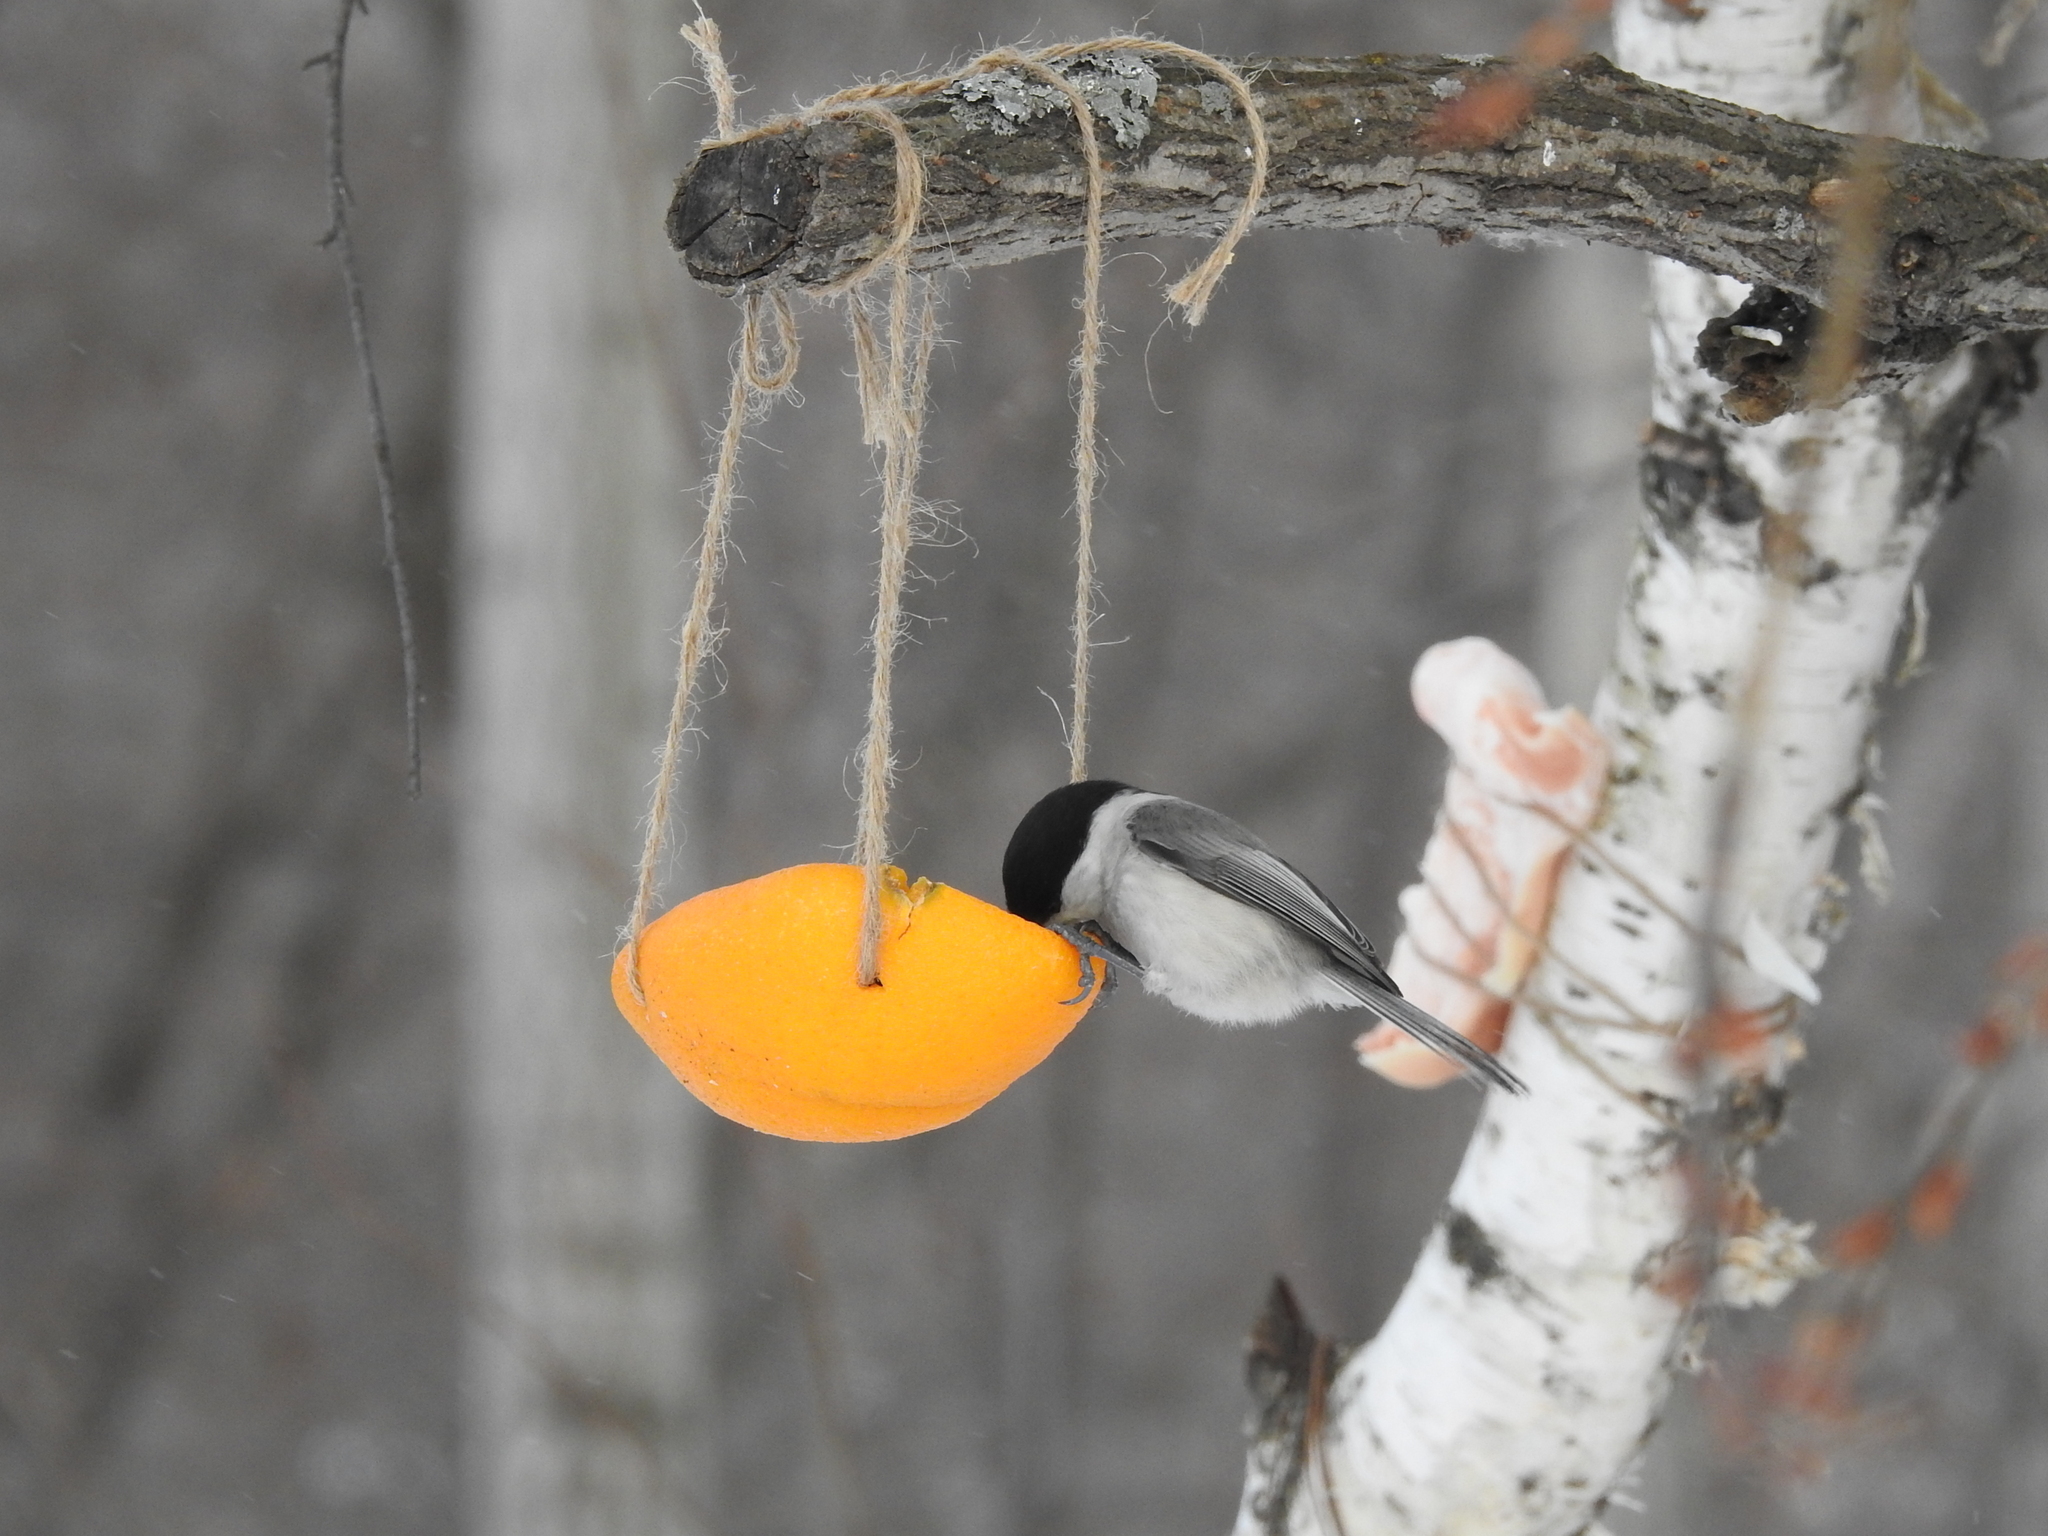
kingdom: Animalia
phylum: Chordata
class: Aves
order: Passeriformes
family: Paridae
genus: Poecile
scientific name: Poecile montanus
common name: Willow tit
